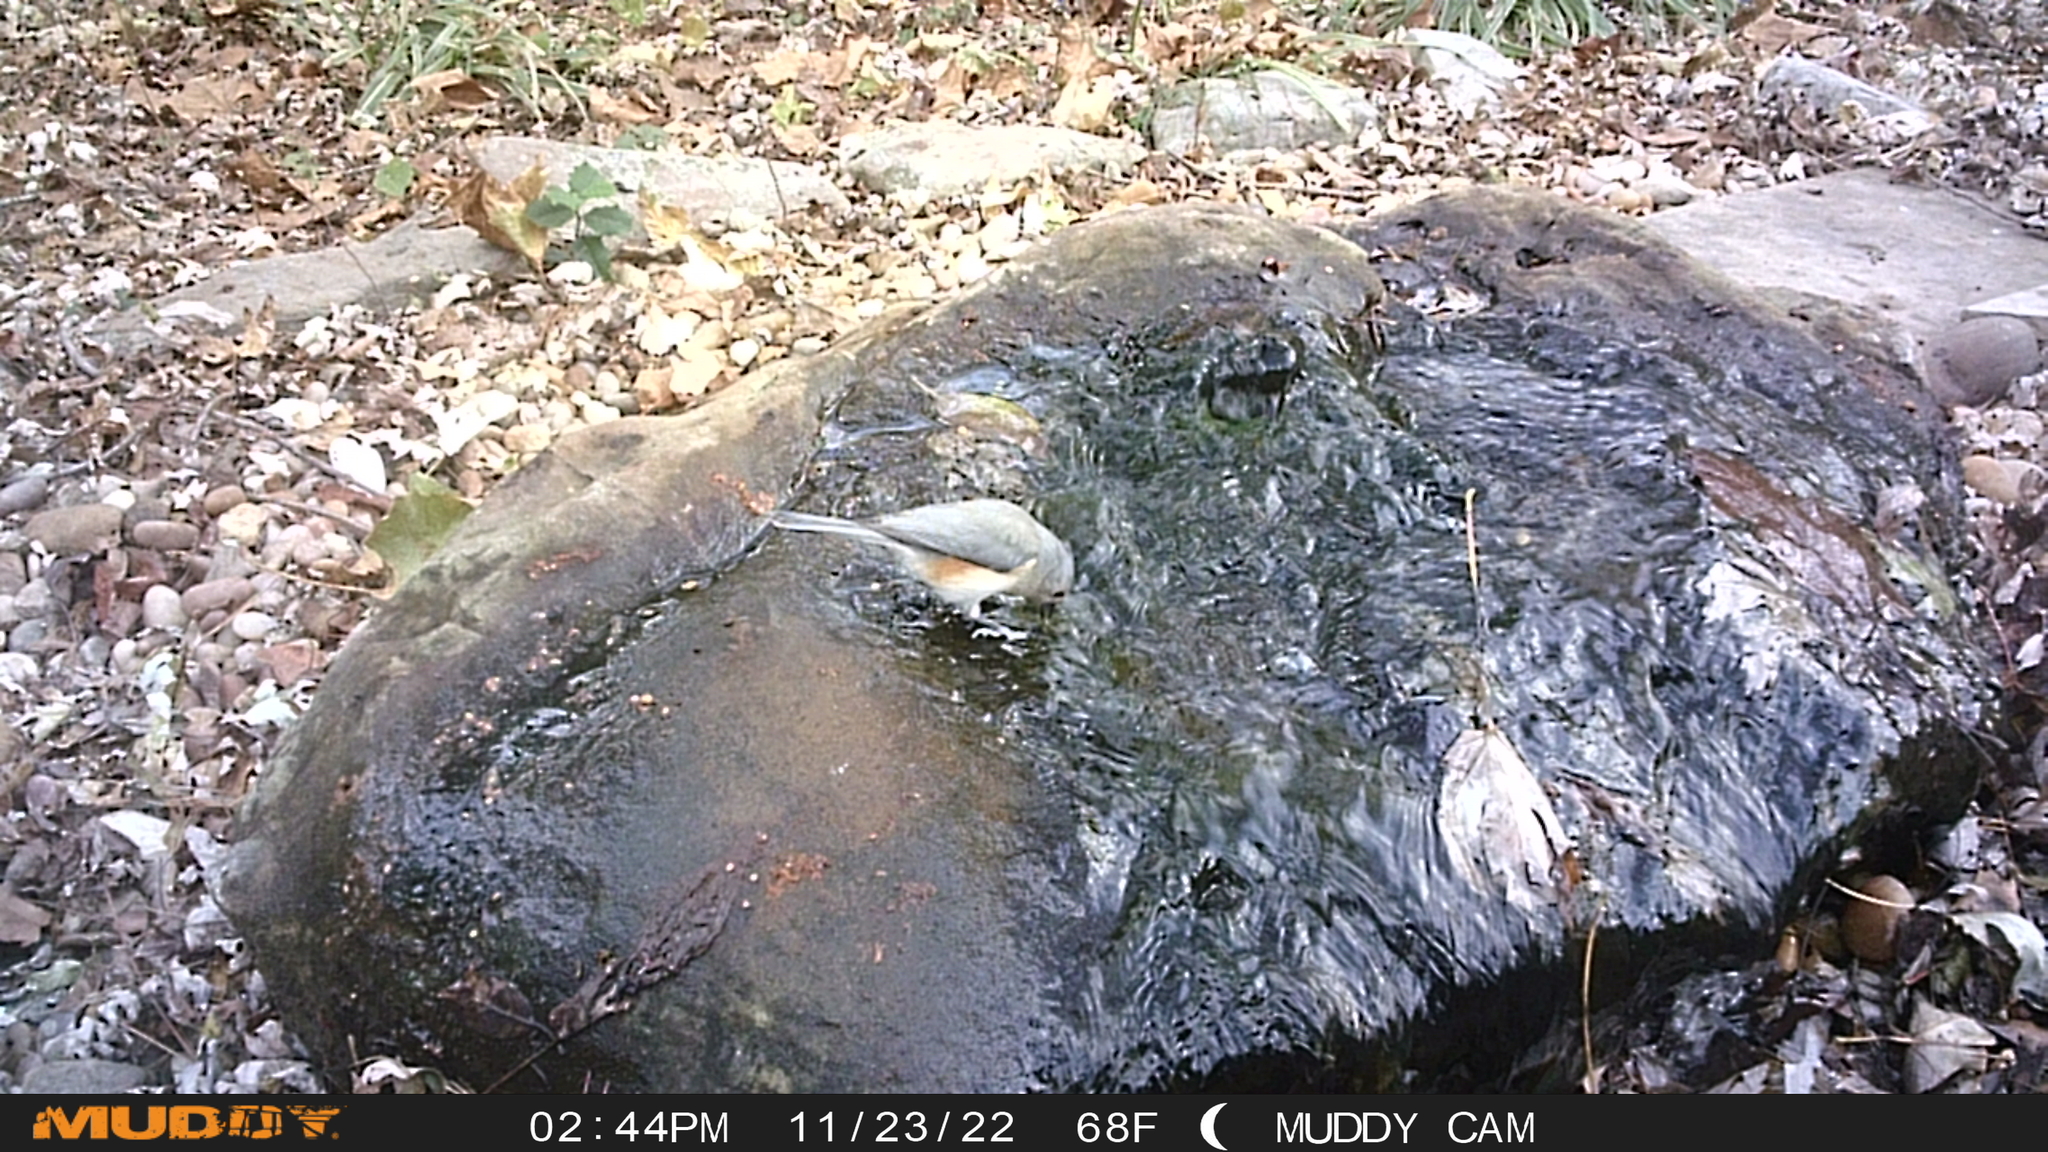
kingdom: Animalia
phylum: Chordata
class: Aves
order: Passeriformes
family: Paridae
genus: Baeolophus
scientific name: Baeolophus bicolor
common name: Tufted titmouse
